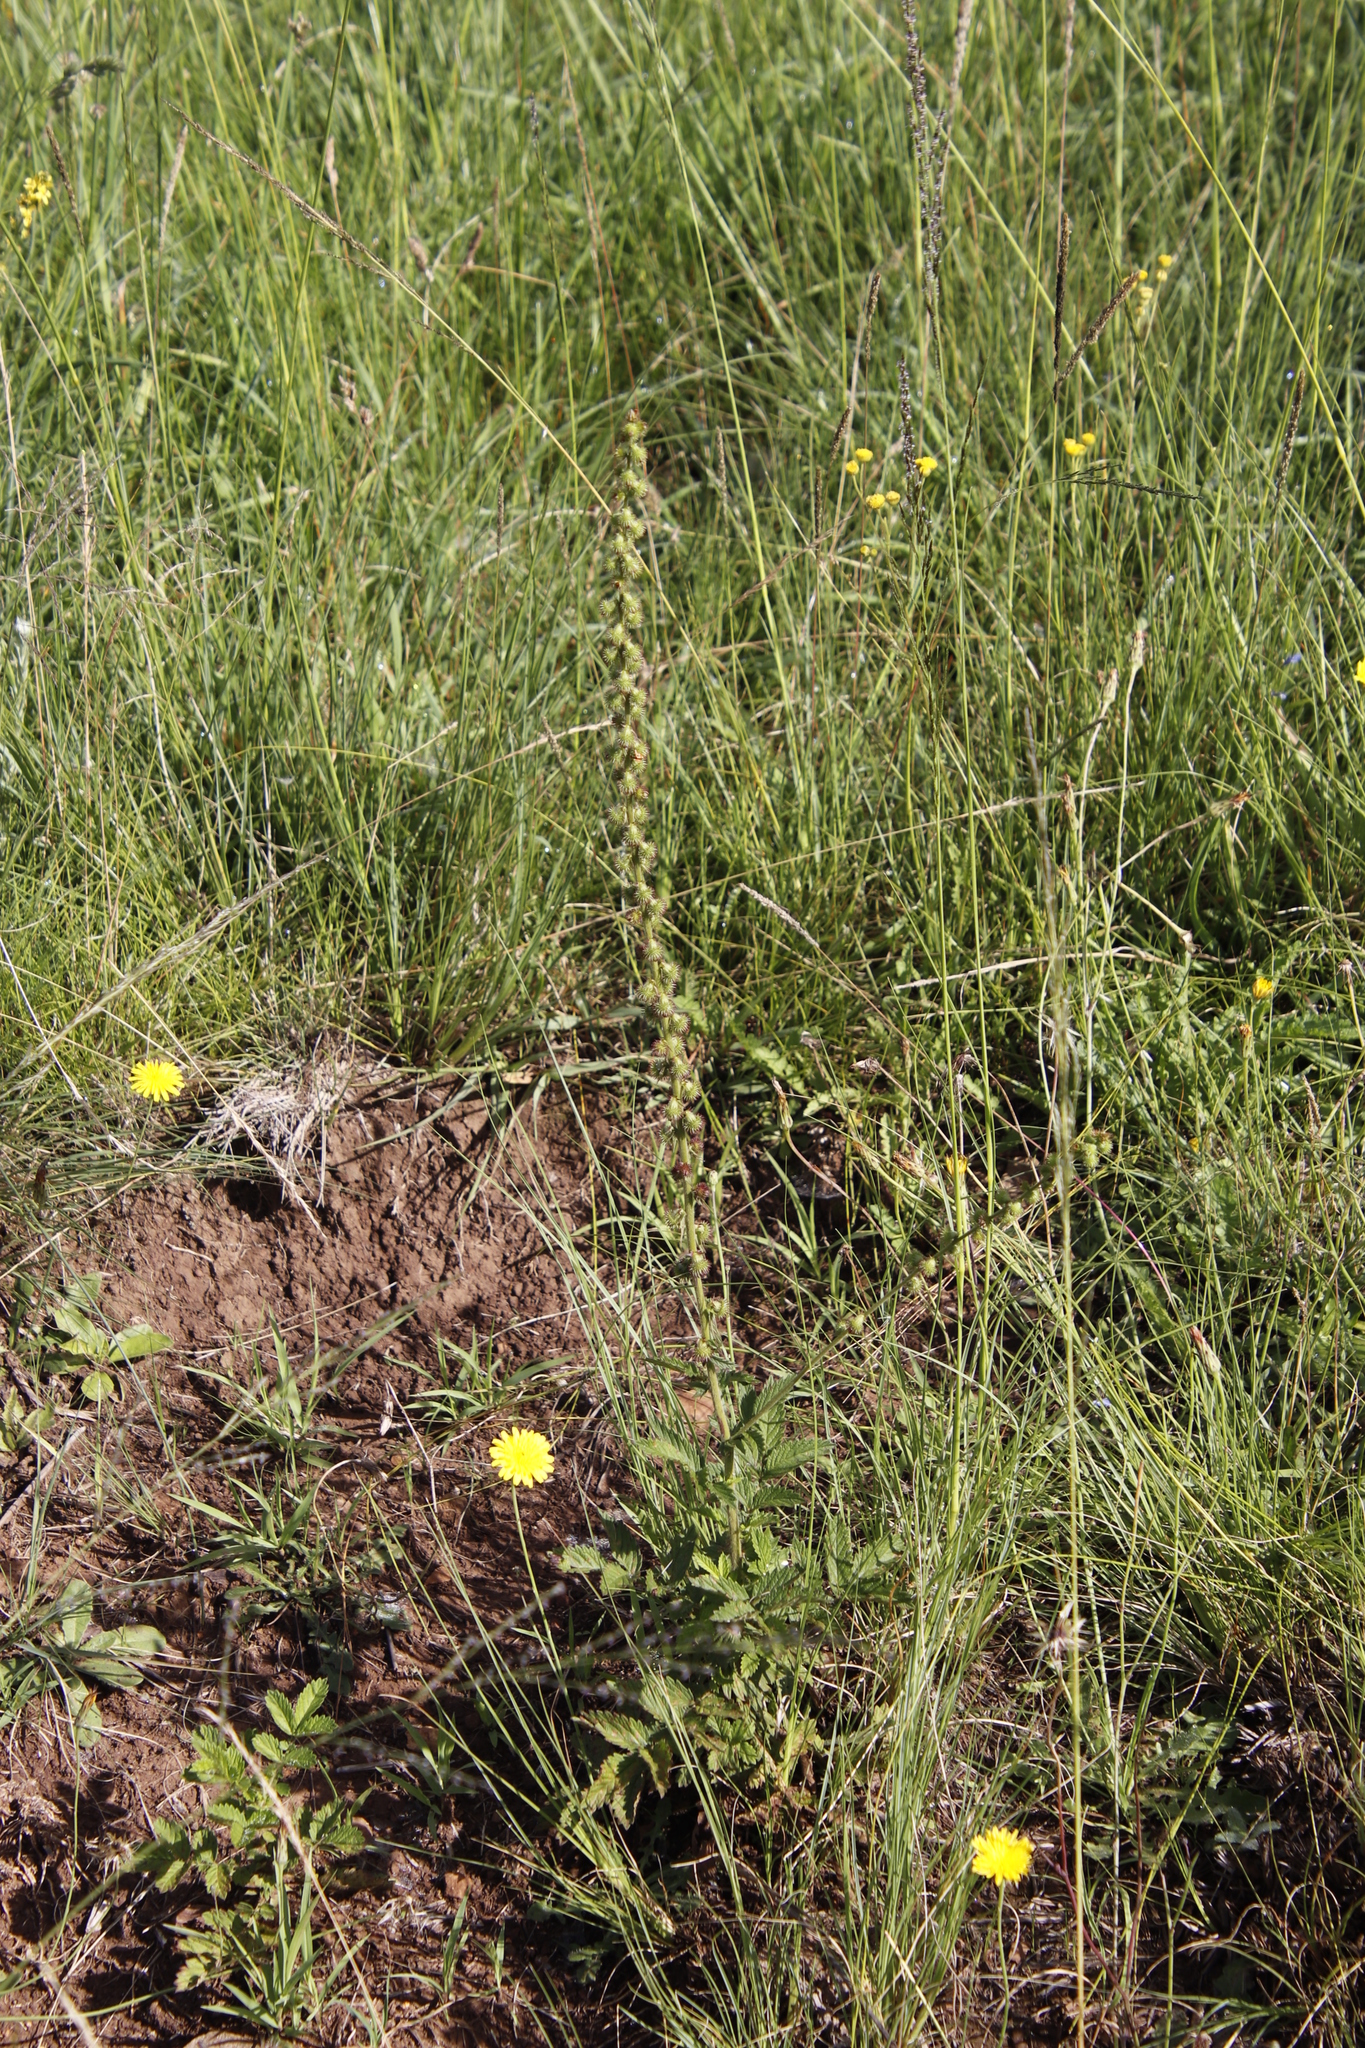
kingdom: Plantae
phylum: Tracheophyta
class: Magnoliopsida
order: Rosales
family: Rosaceae
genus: Agrimonia
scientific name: Agrimonia bracteata
